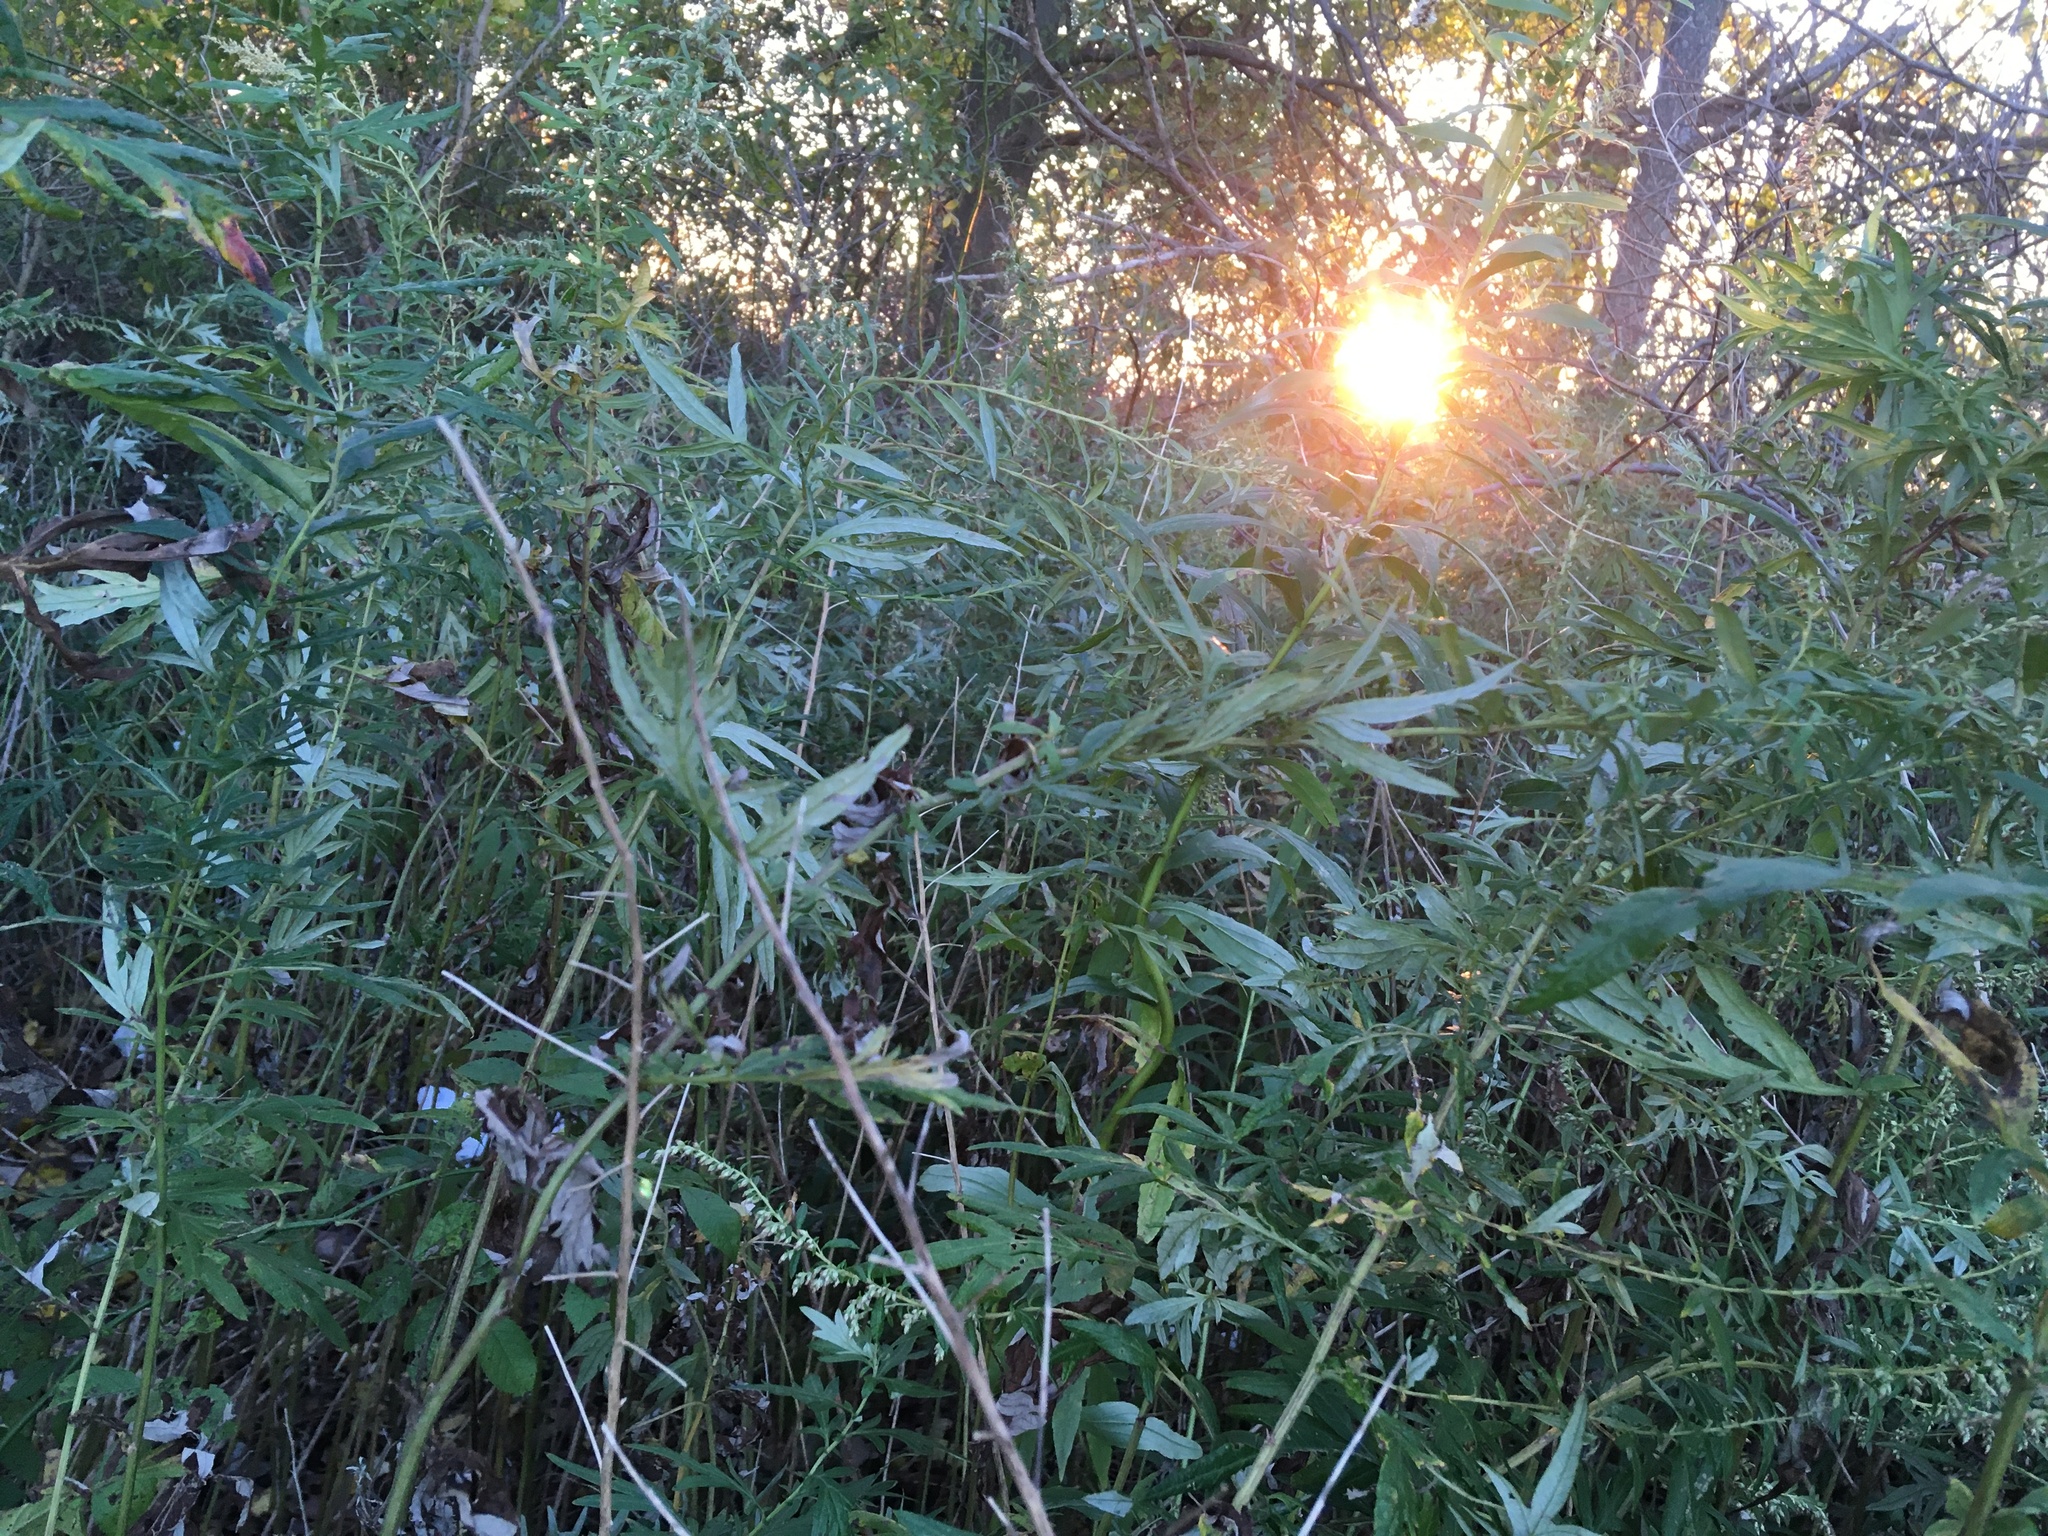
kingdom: Plantae
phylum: Tracheophyta
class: Magnoliopsida
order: Asterales
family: Asteraceae
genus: Artemisia
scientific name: Artemisia vulgaris
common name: Mugwort
